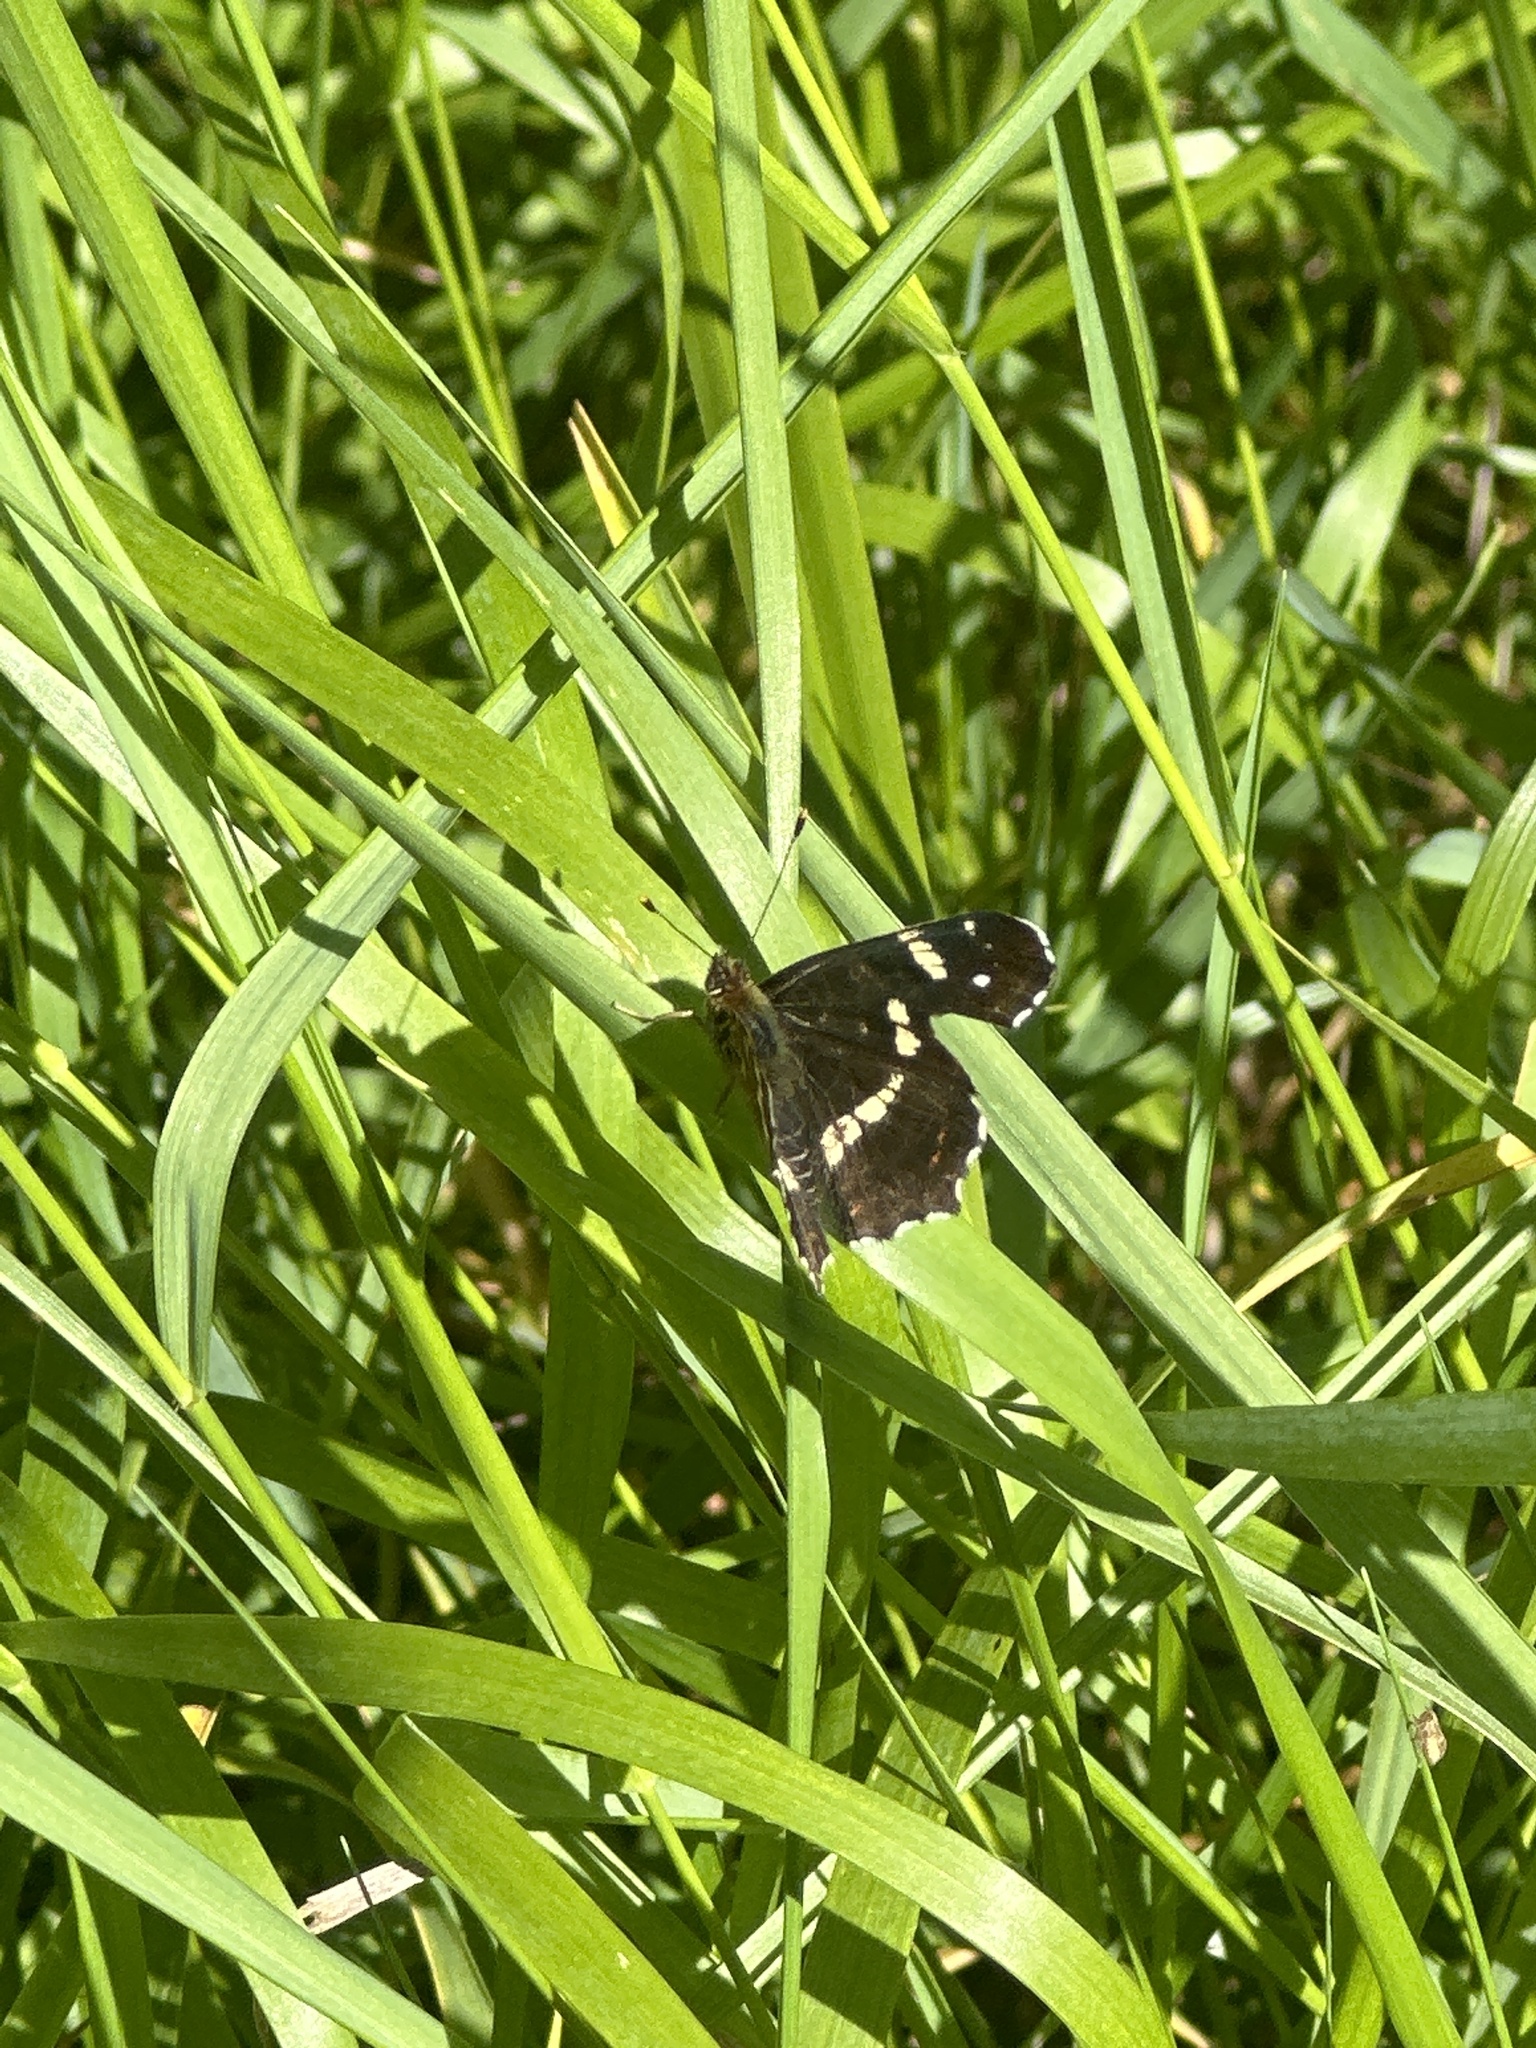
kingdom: Animalia
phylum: Arthropoda
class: Insecta
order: Lepidoptera
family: Nymphalidae
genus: Araschnia
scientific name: Araschnia levana
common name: Map butterfly
